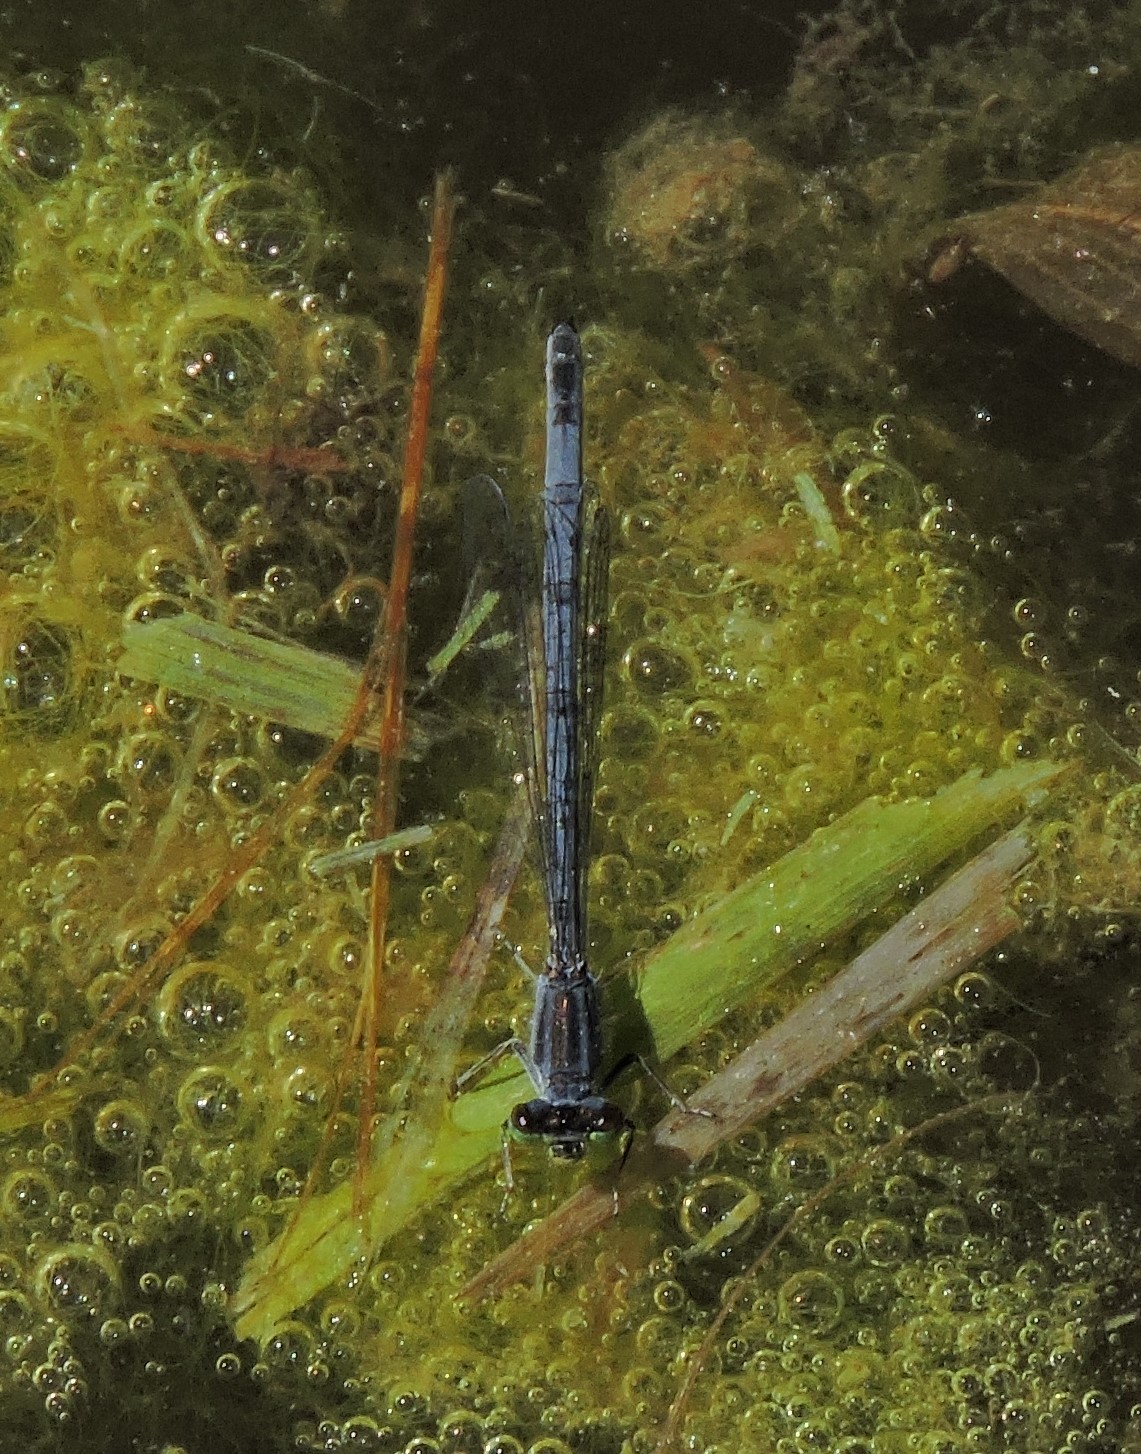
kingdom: Animalia
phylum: Arthropoda
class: Insecta
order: Odonata
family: Coenagrionidae
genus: Ischnura
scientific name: Ischnura verticalis
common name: Eastern forktail
